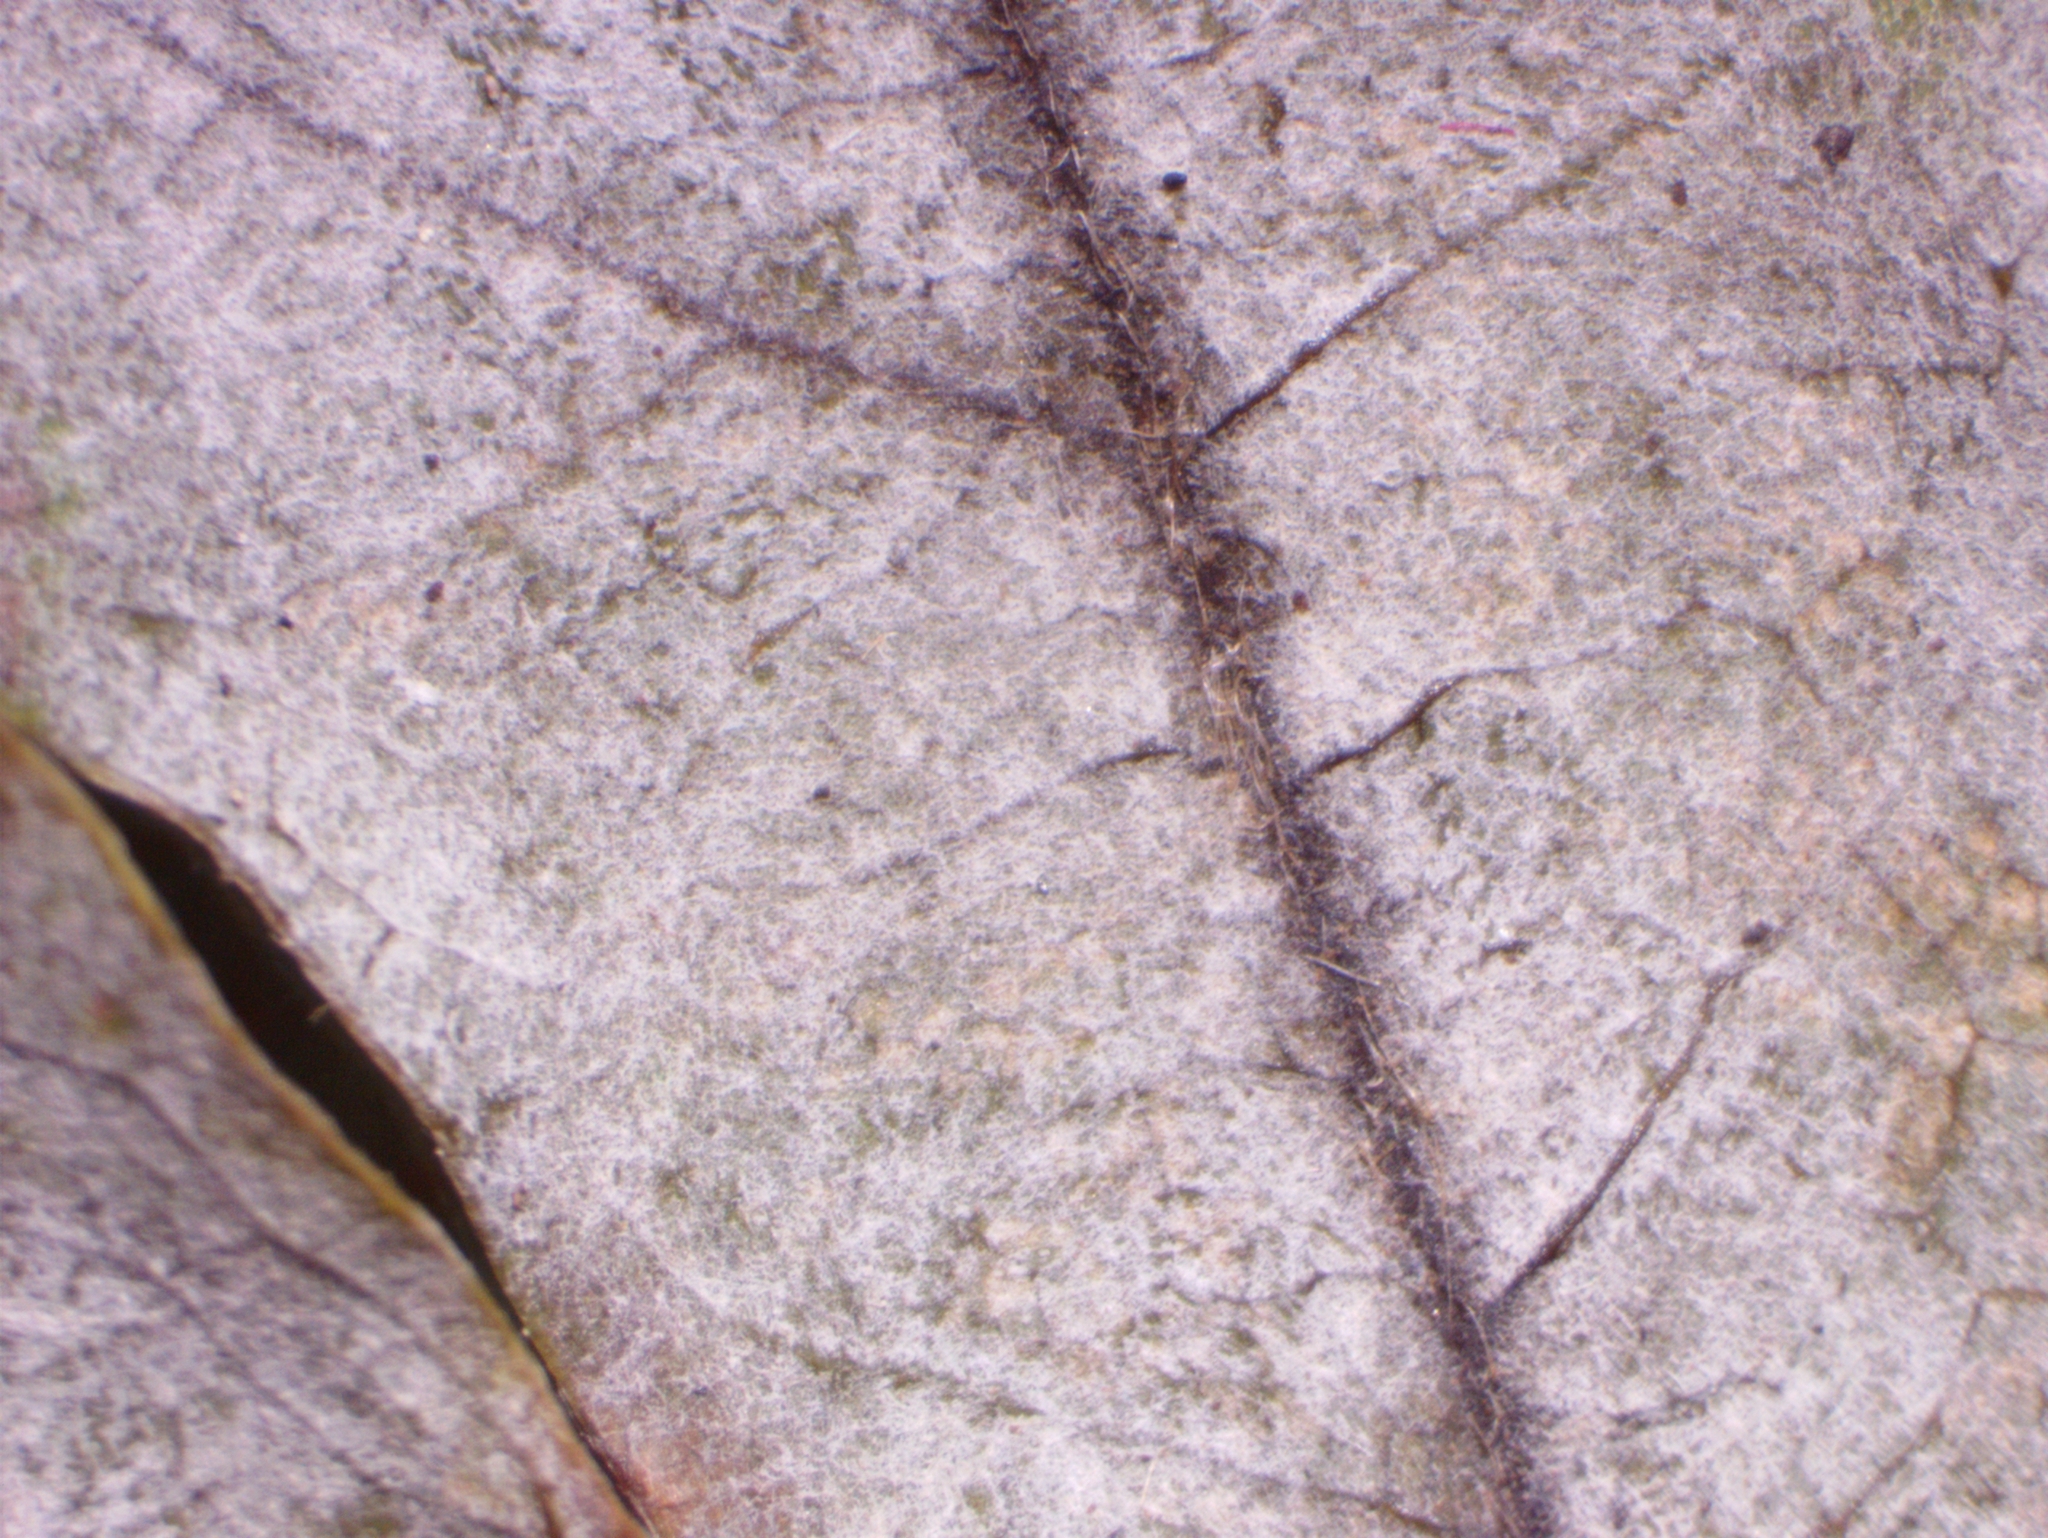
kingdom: Fungi
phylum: Ascomycota
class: Leotiomycetes
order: Helotiales
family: Erysiphaceae
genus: Erysiphe
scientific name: Erysiphe
